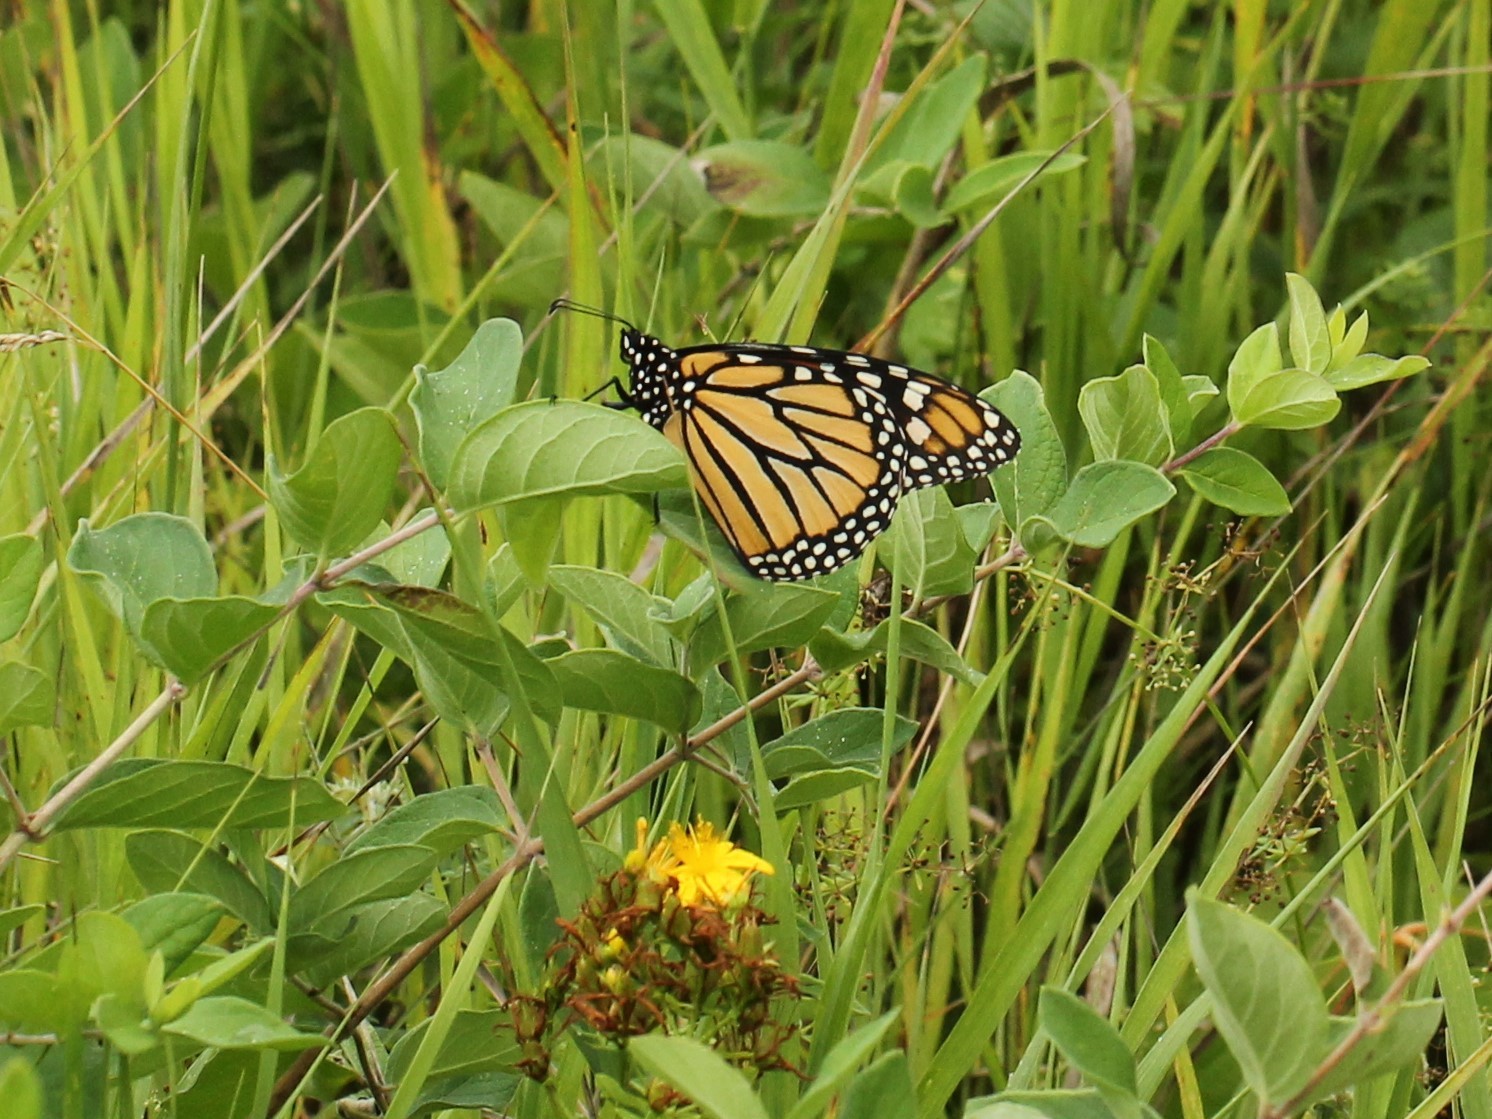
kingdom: Animalia
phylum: Arthropoda
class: Insecta
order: Lepidoptera
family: Nymphalidae
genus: Danaus
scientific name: Danaus plexippus
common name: Monarch
